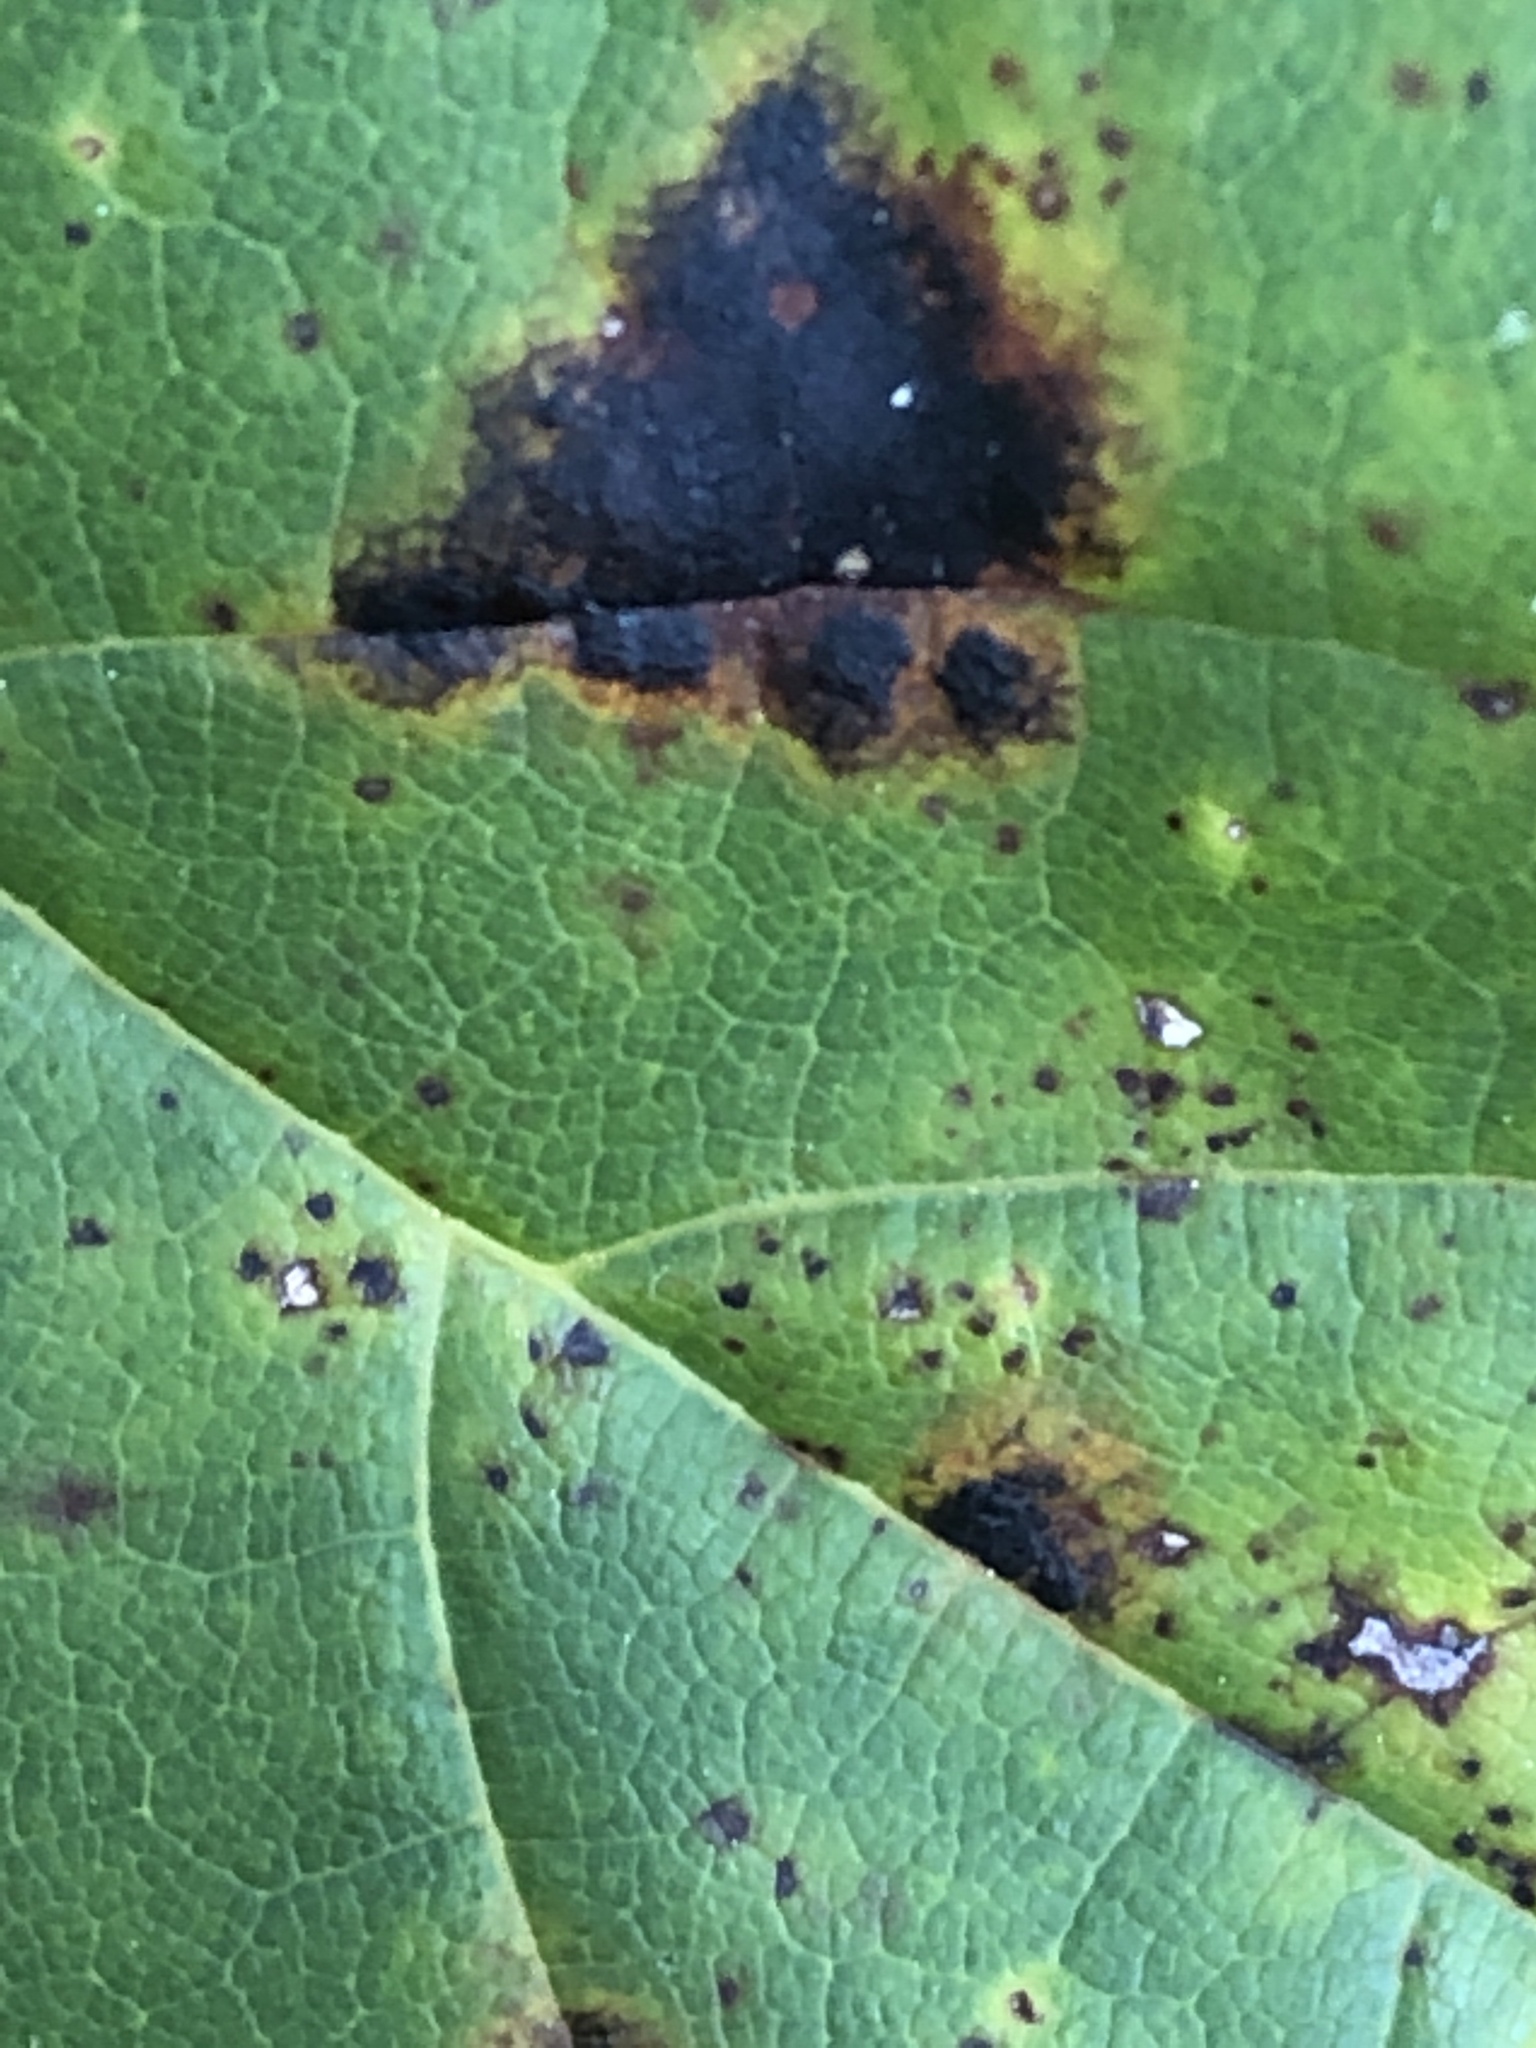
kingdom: Fungi
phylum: Ascomycota
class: Leotiomycetes
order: Rhytismatales
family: Rhytismataceae
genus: Rhytisma
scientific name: Rhytisma acerinum
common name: European tar spot
